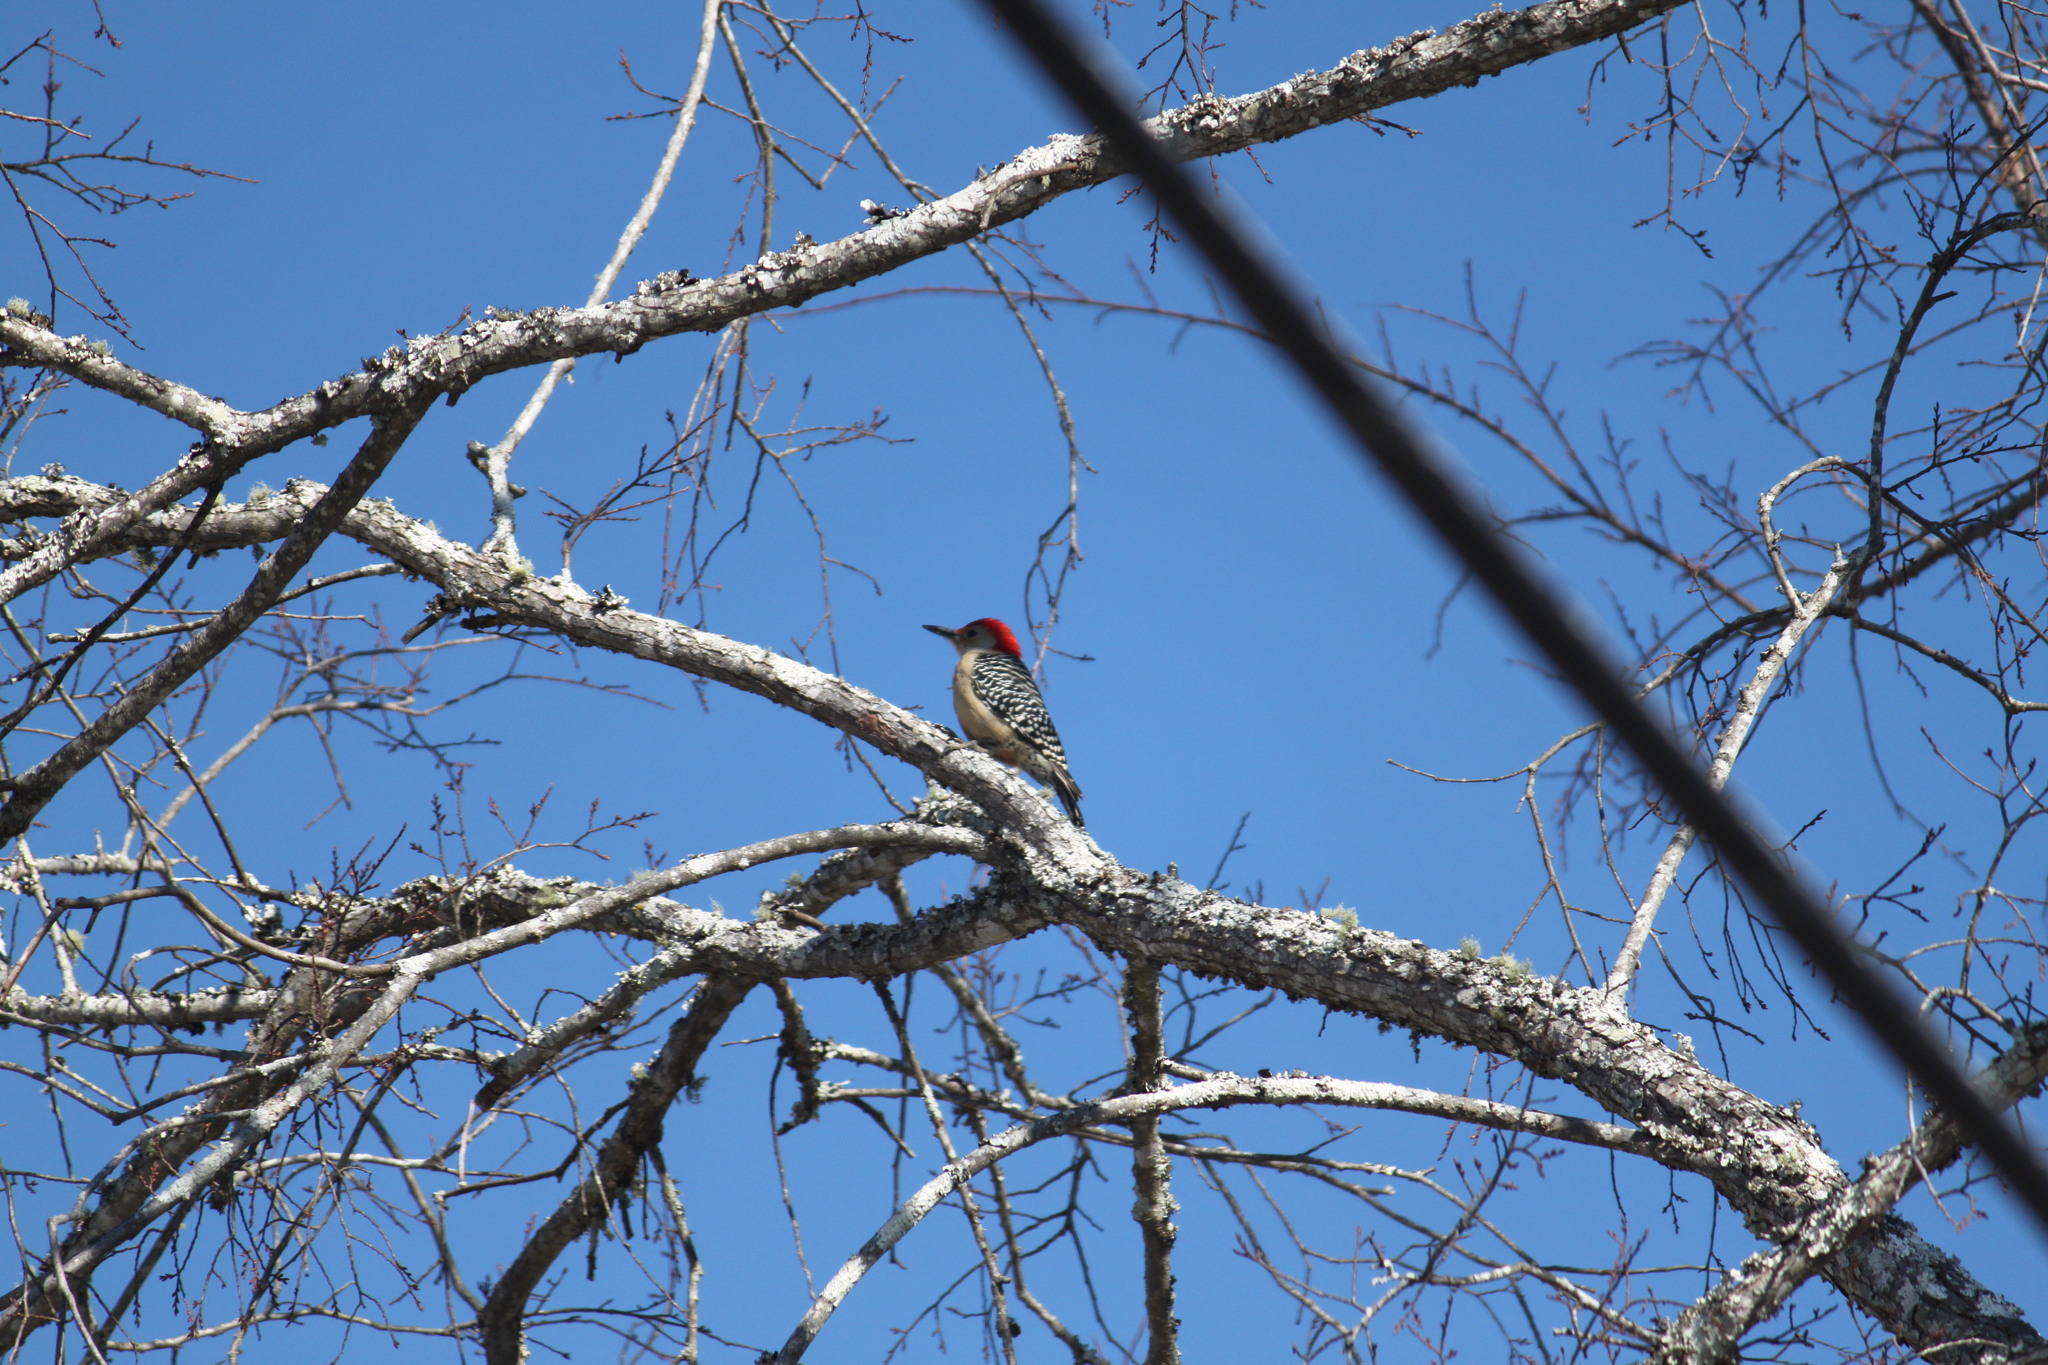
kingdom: Animalia
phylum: Chordata
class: Aves
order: Piciformes
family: Picidae
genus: Melanerpes
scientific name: Melanerpes carolinus
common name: Red-bellied woodpecker
